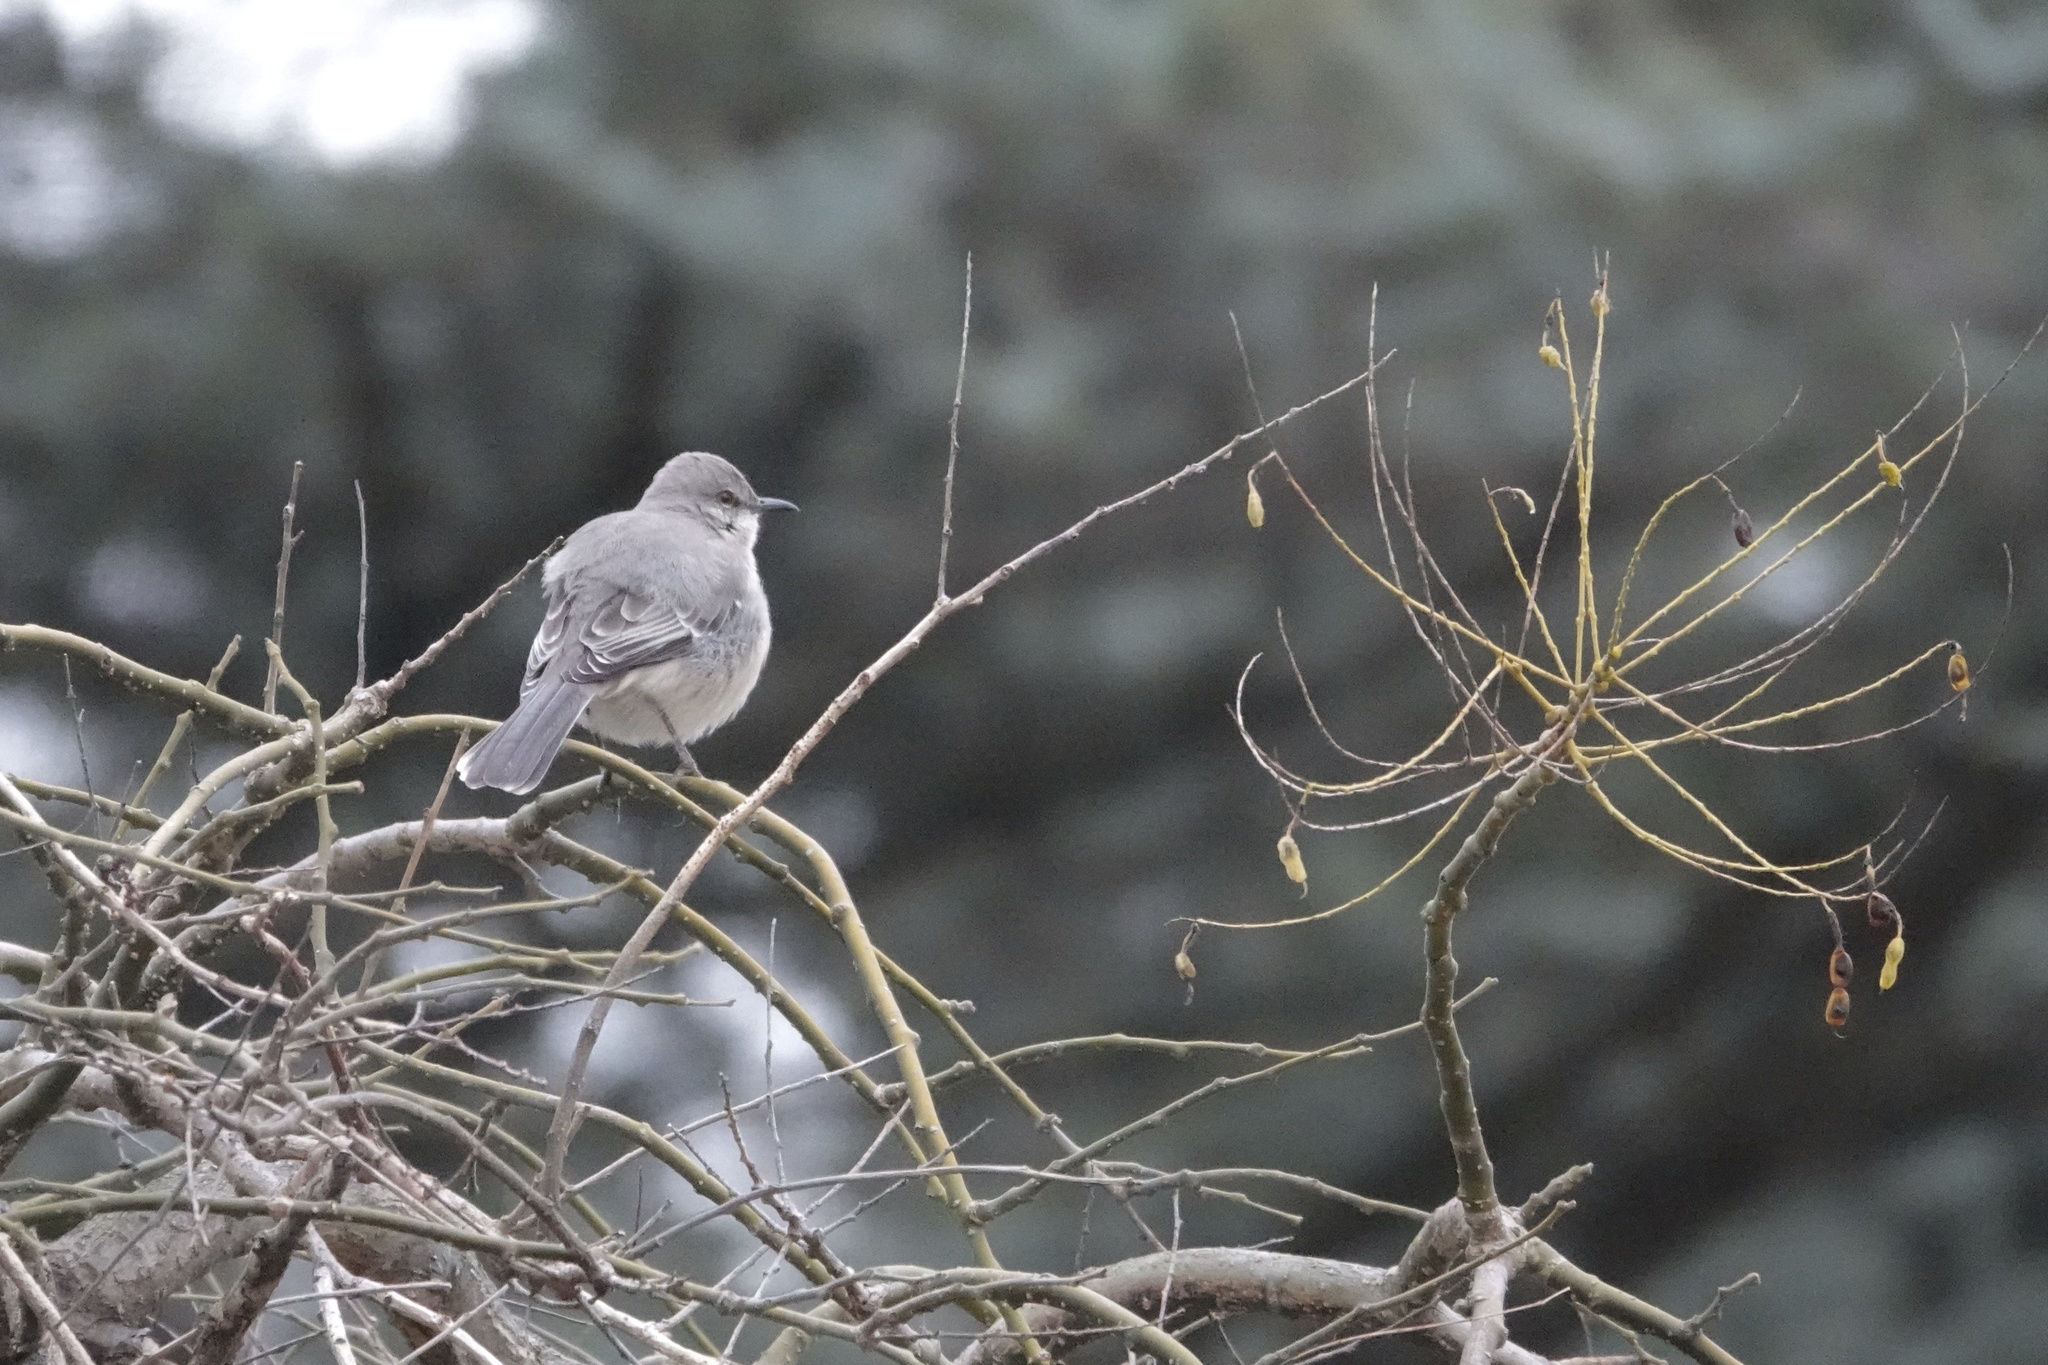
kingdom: Animalia
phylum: Chordata
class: Aves
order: Passeriformes
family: Mimidae
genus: Mimus
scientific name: Mimus polyglottos
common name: Northern mockingbird
